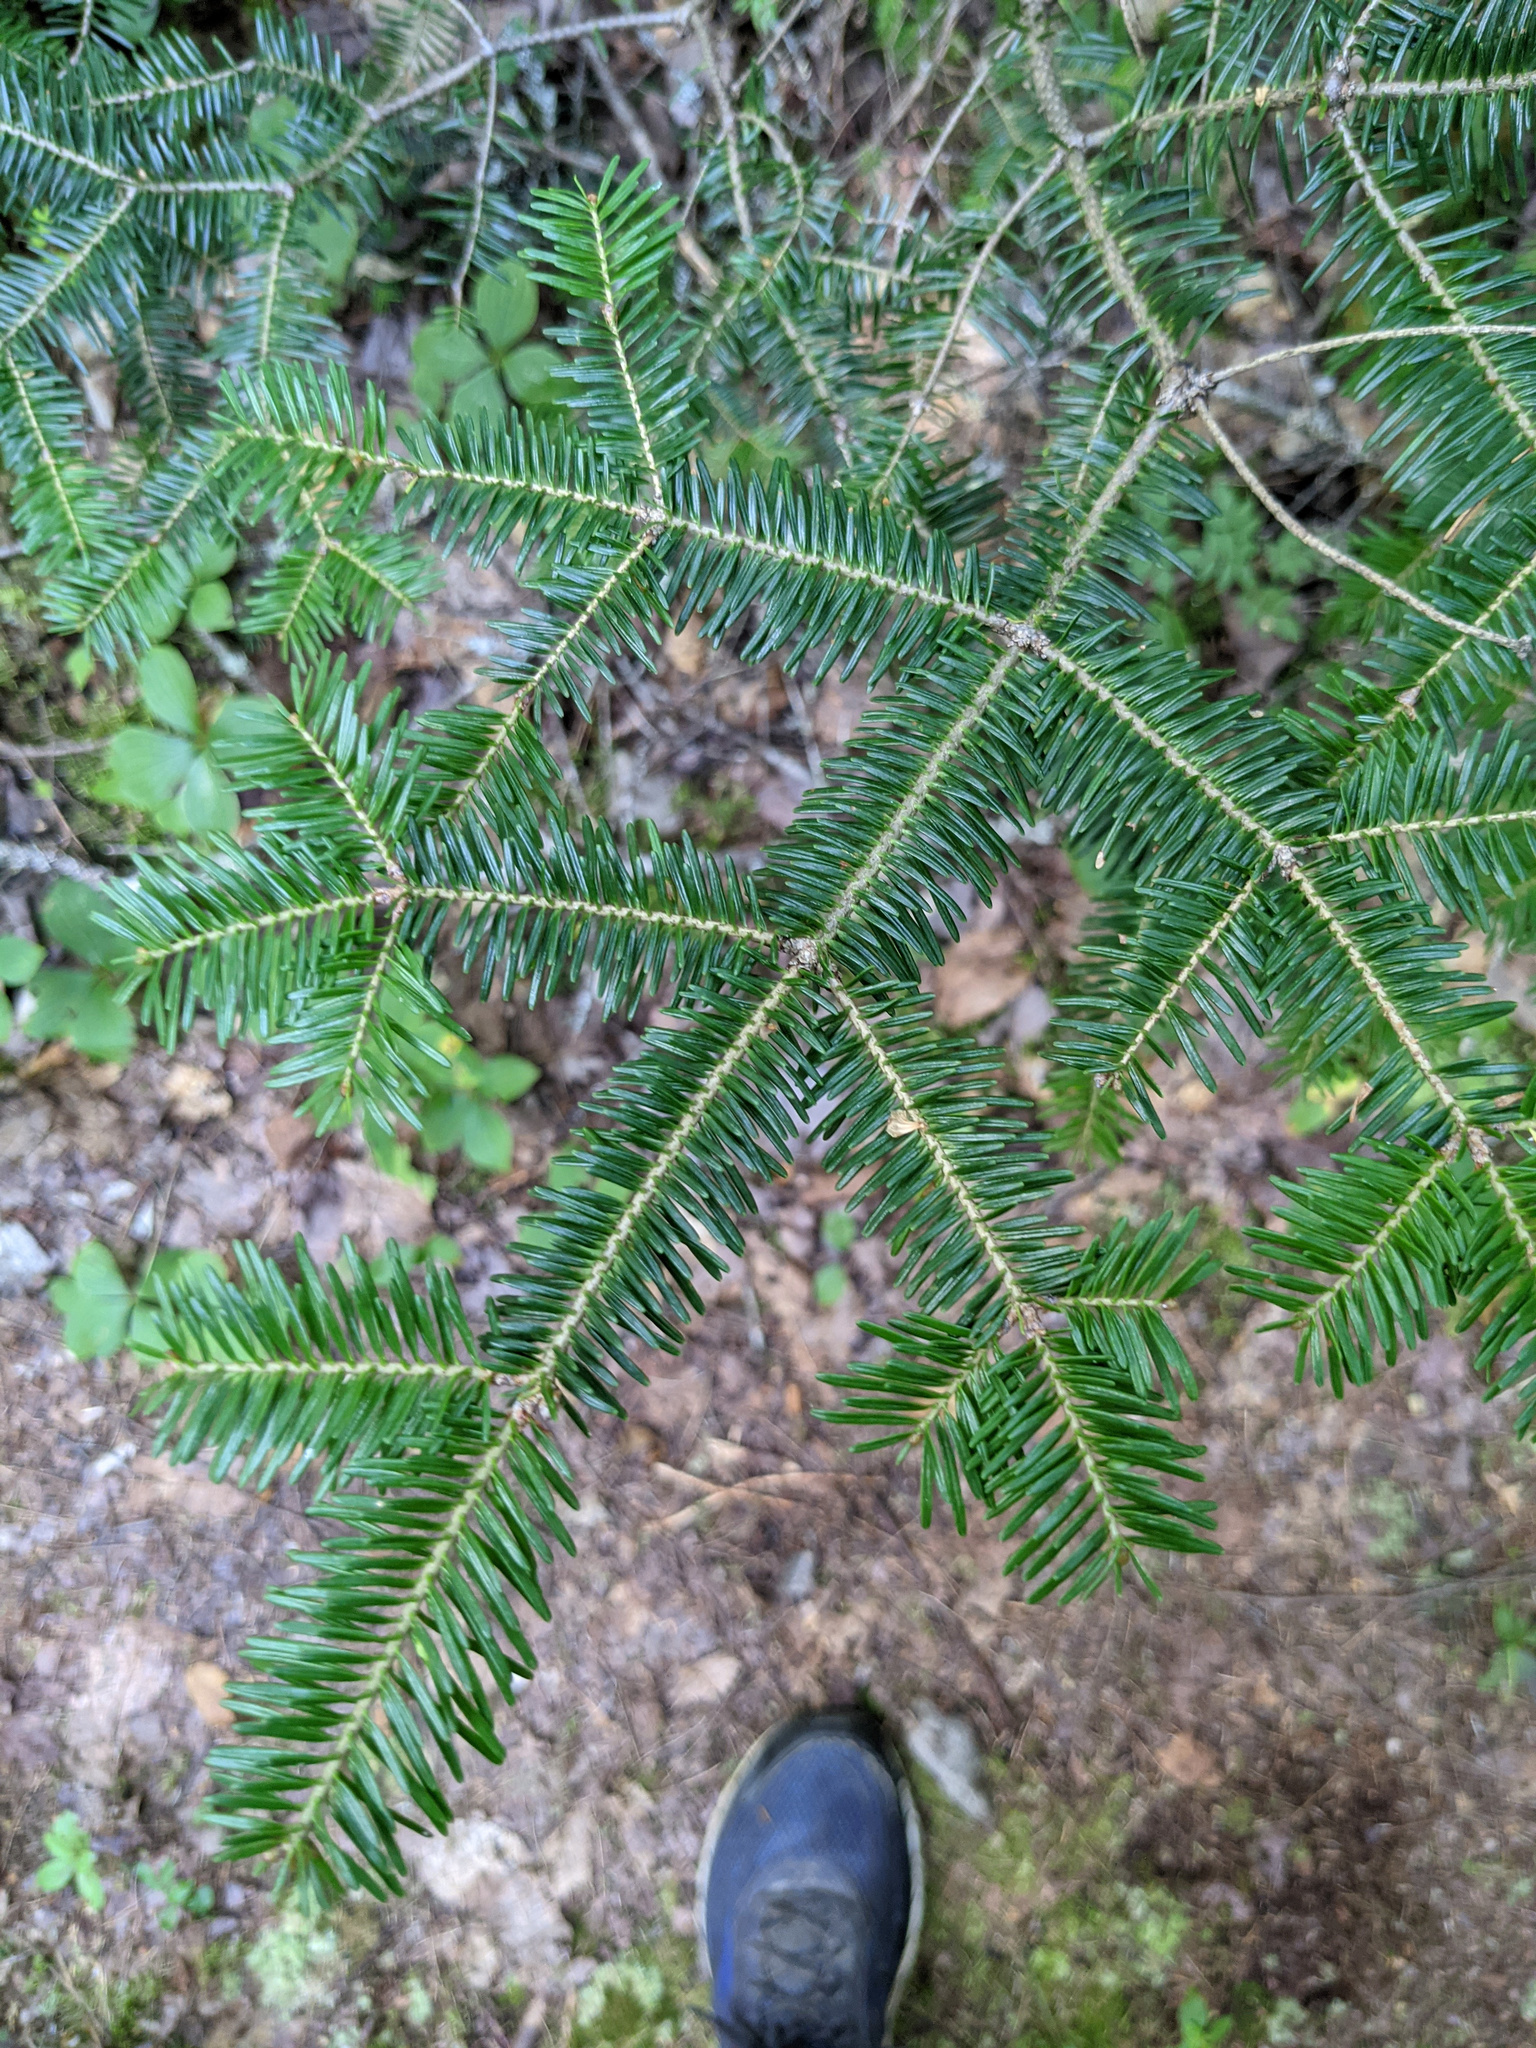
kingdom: Plantae
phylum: Tracheophyta
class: Pinopsida
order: Pinales
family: Pinaceae
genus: Abies
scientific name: Abies balsamea
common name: Balsam fir
